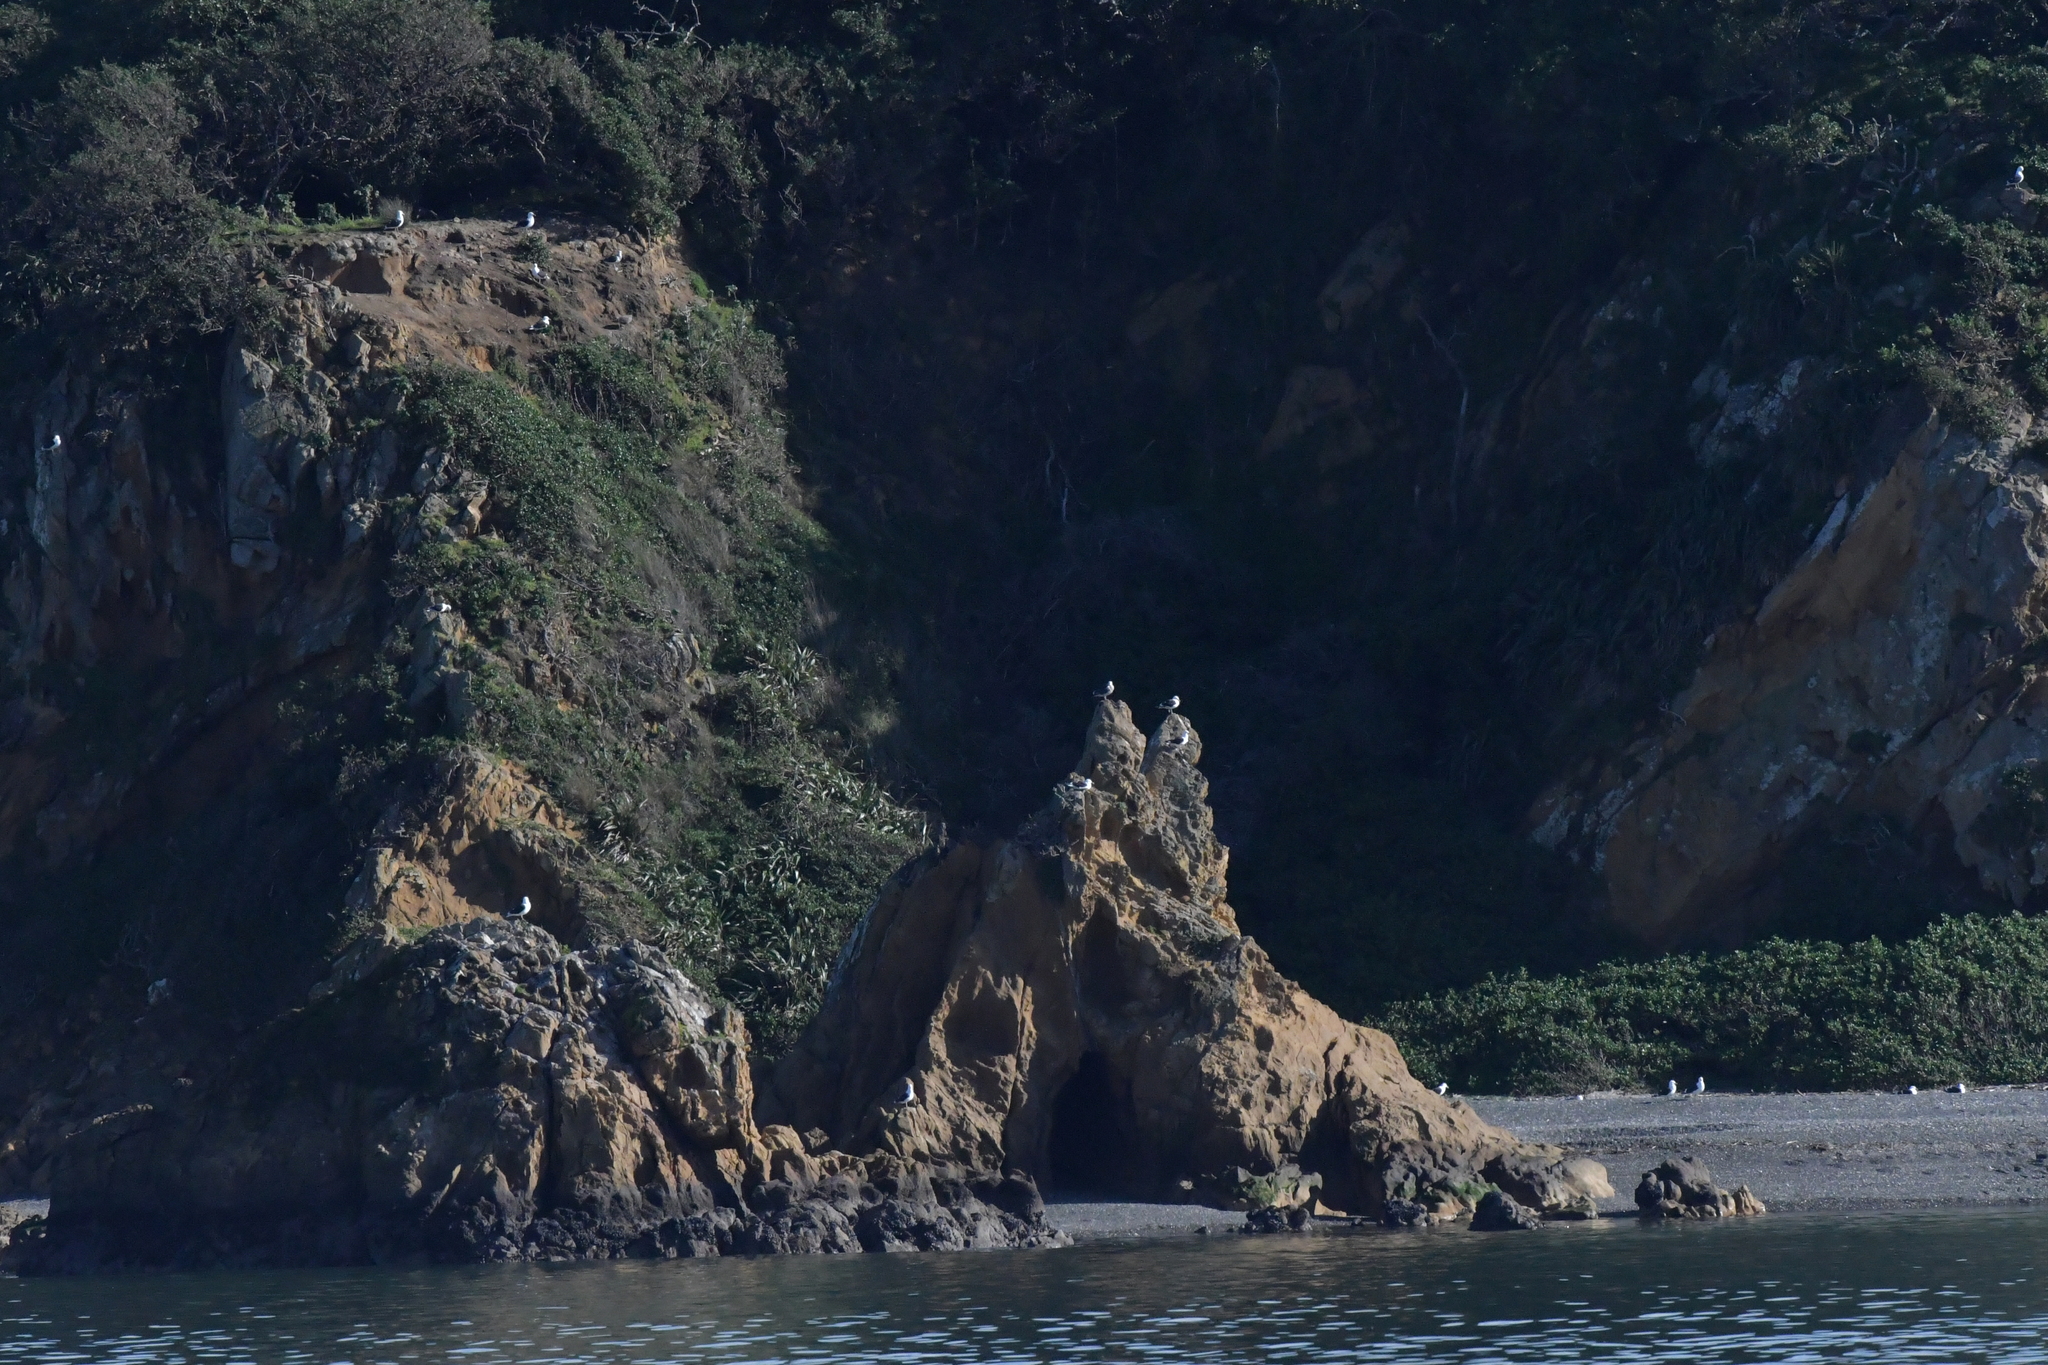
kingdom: Animalia
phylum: Chordata
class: Aves
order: Charadriiformes
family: Laridae
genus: Larus
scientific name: Larus dominicanus
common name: Kelp gull
